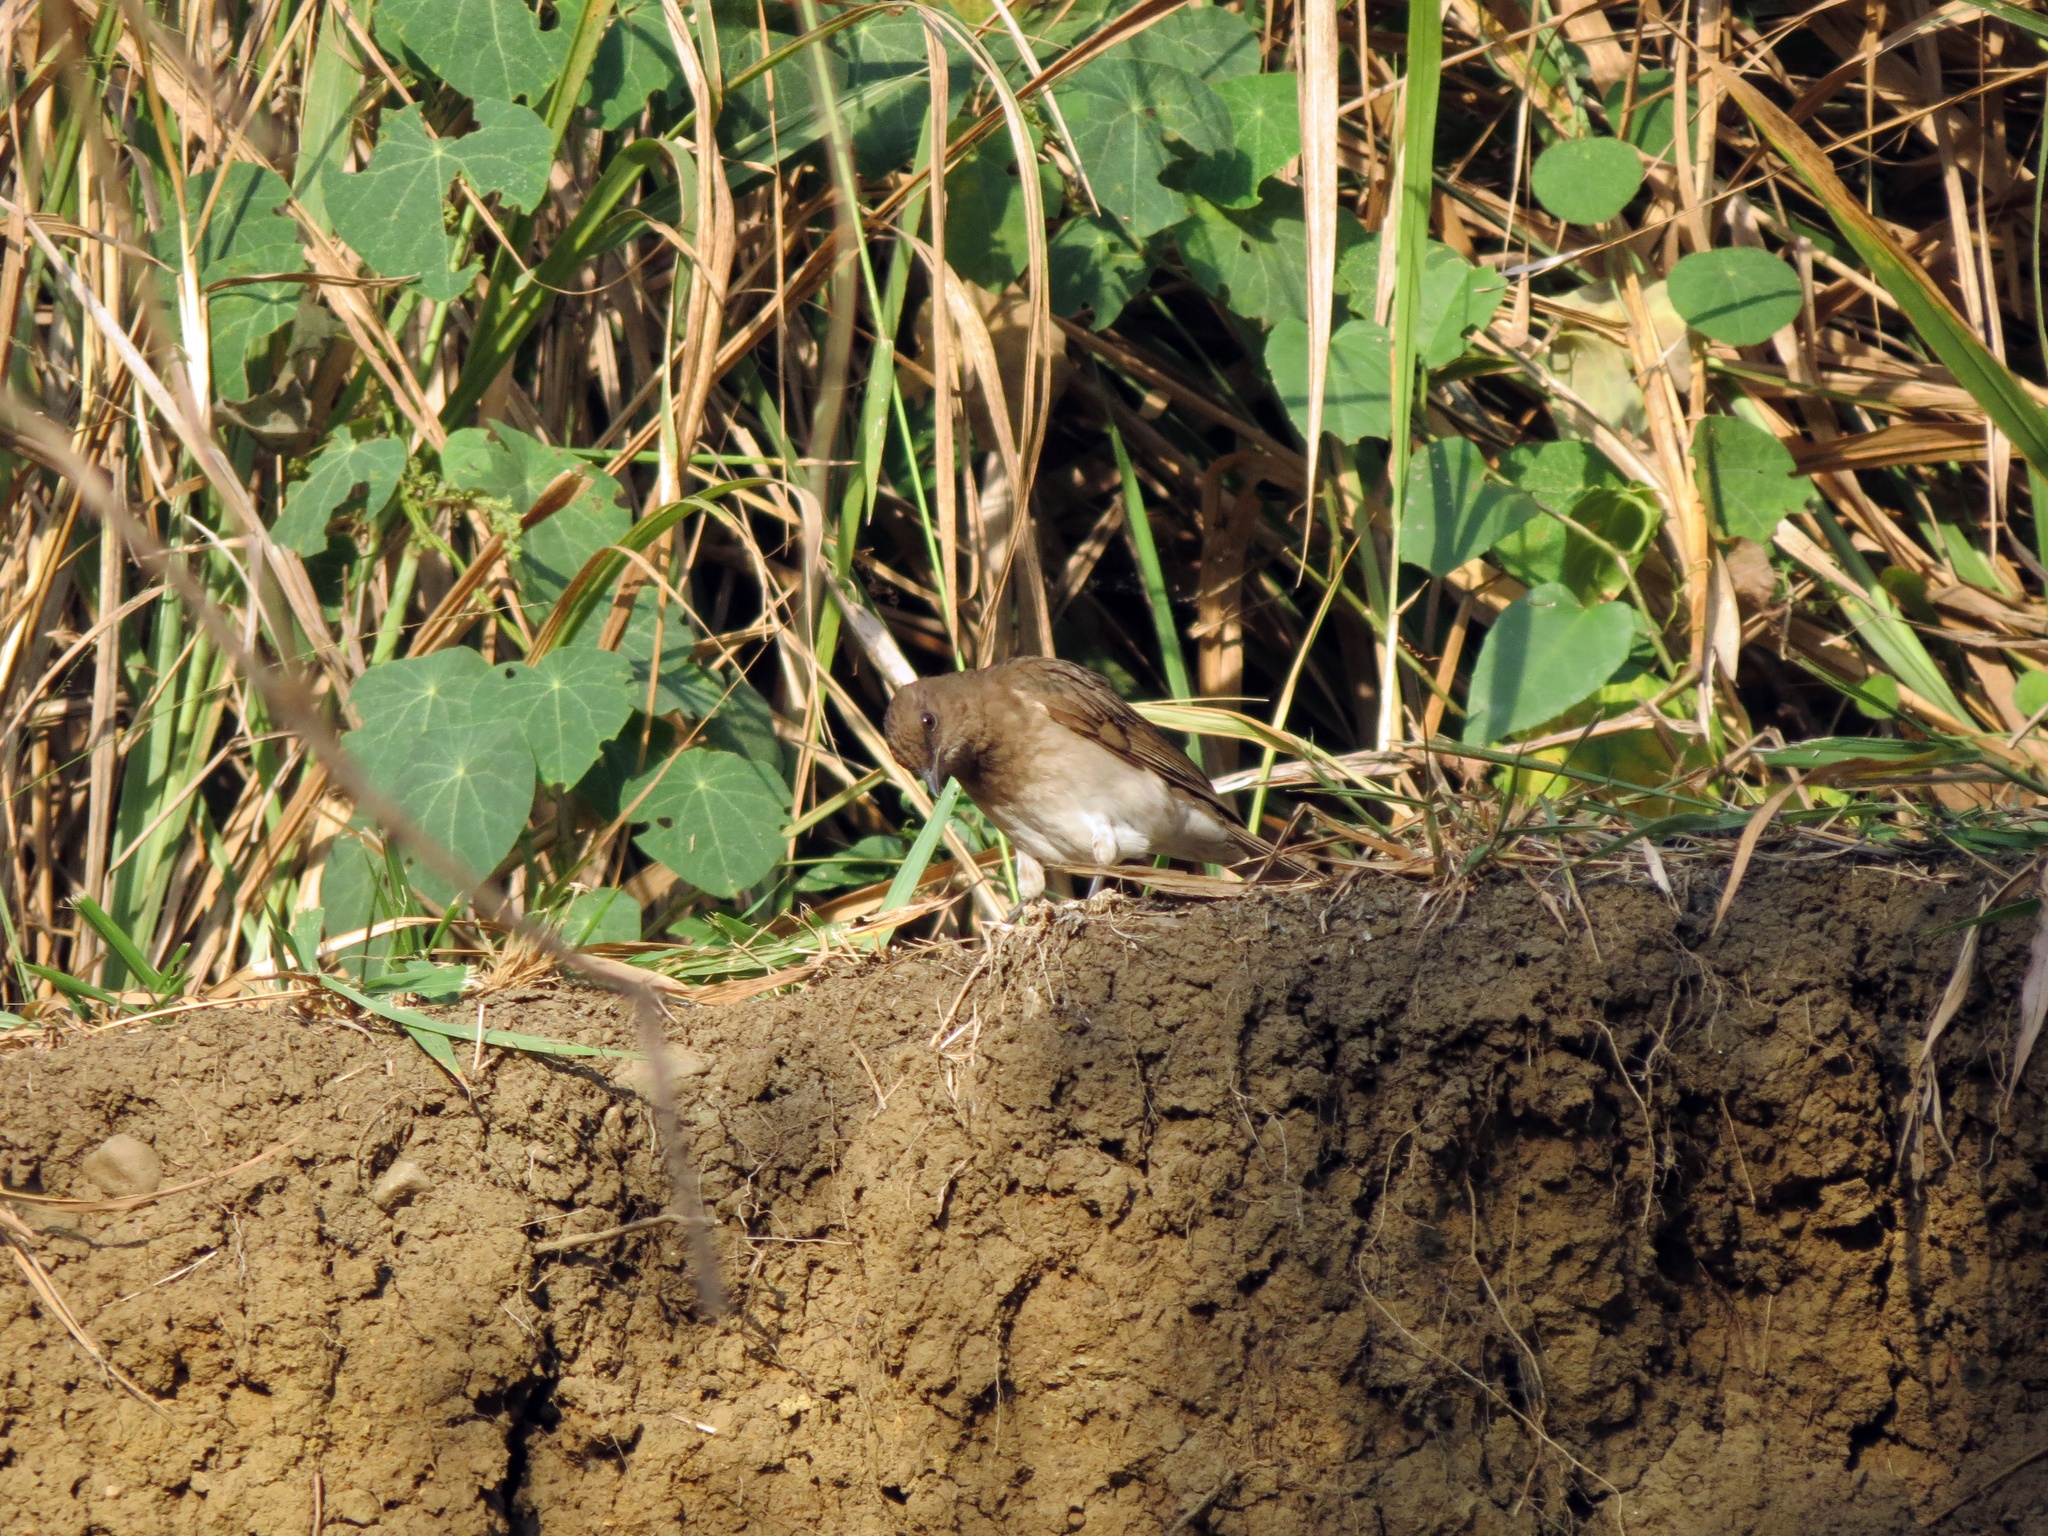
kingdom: Animalia
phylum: Chordata
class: Aves
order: Passeriformes
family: Turdidae
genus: Turdus
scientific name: Turdus ignobilis
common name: Black-billed thrush
